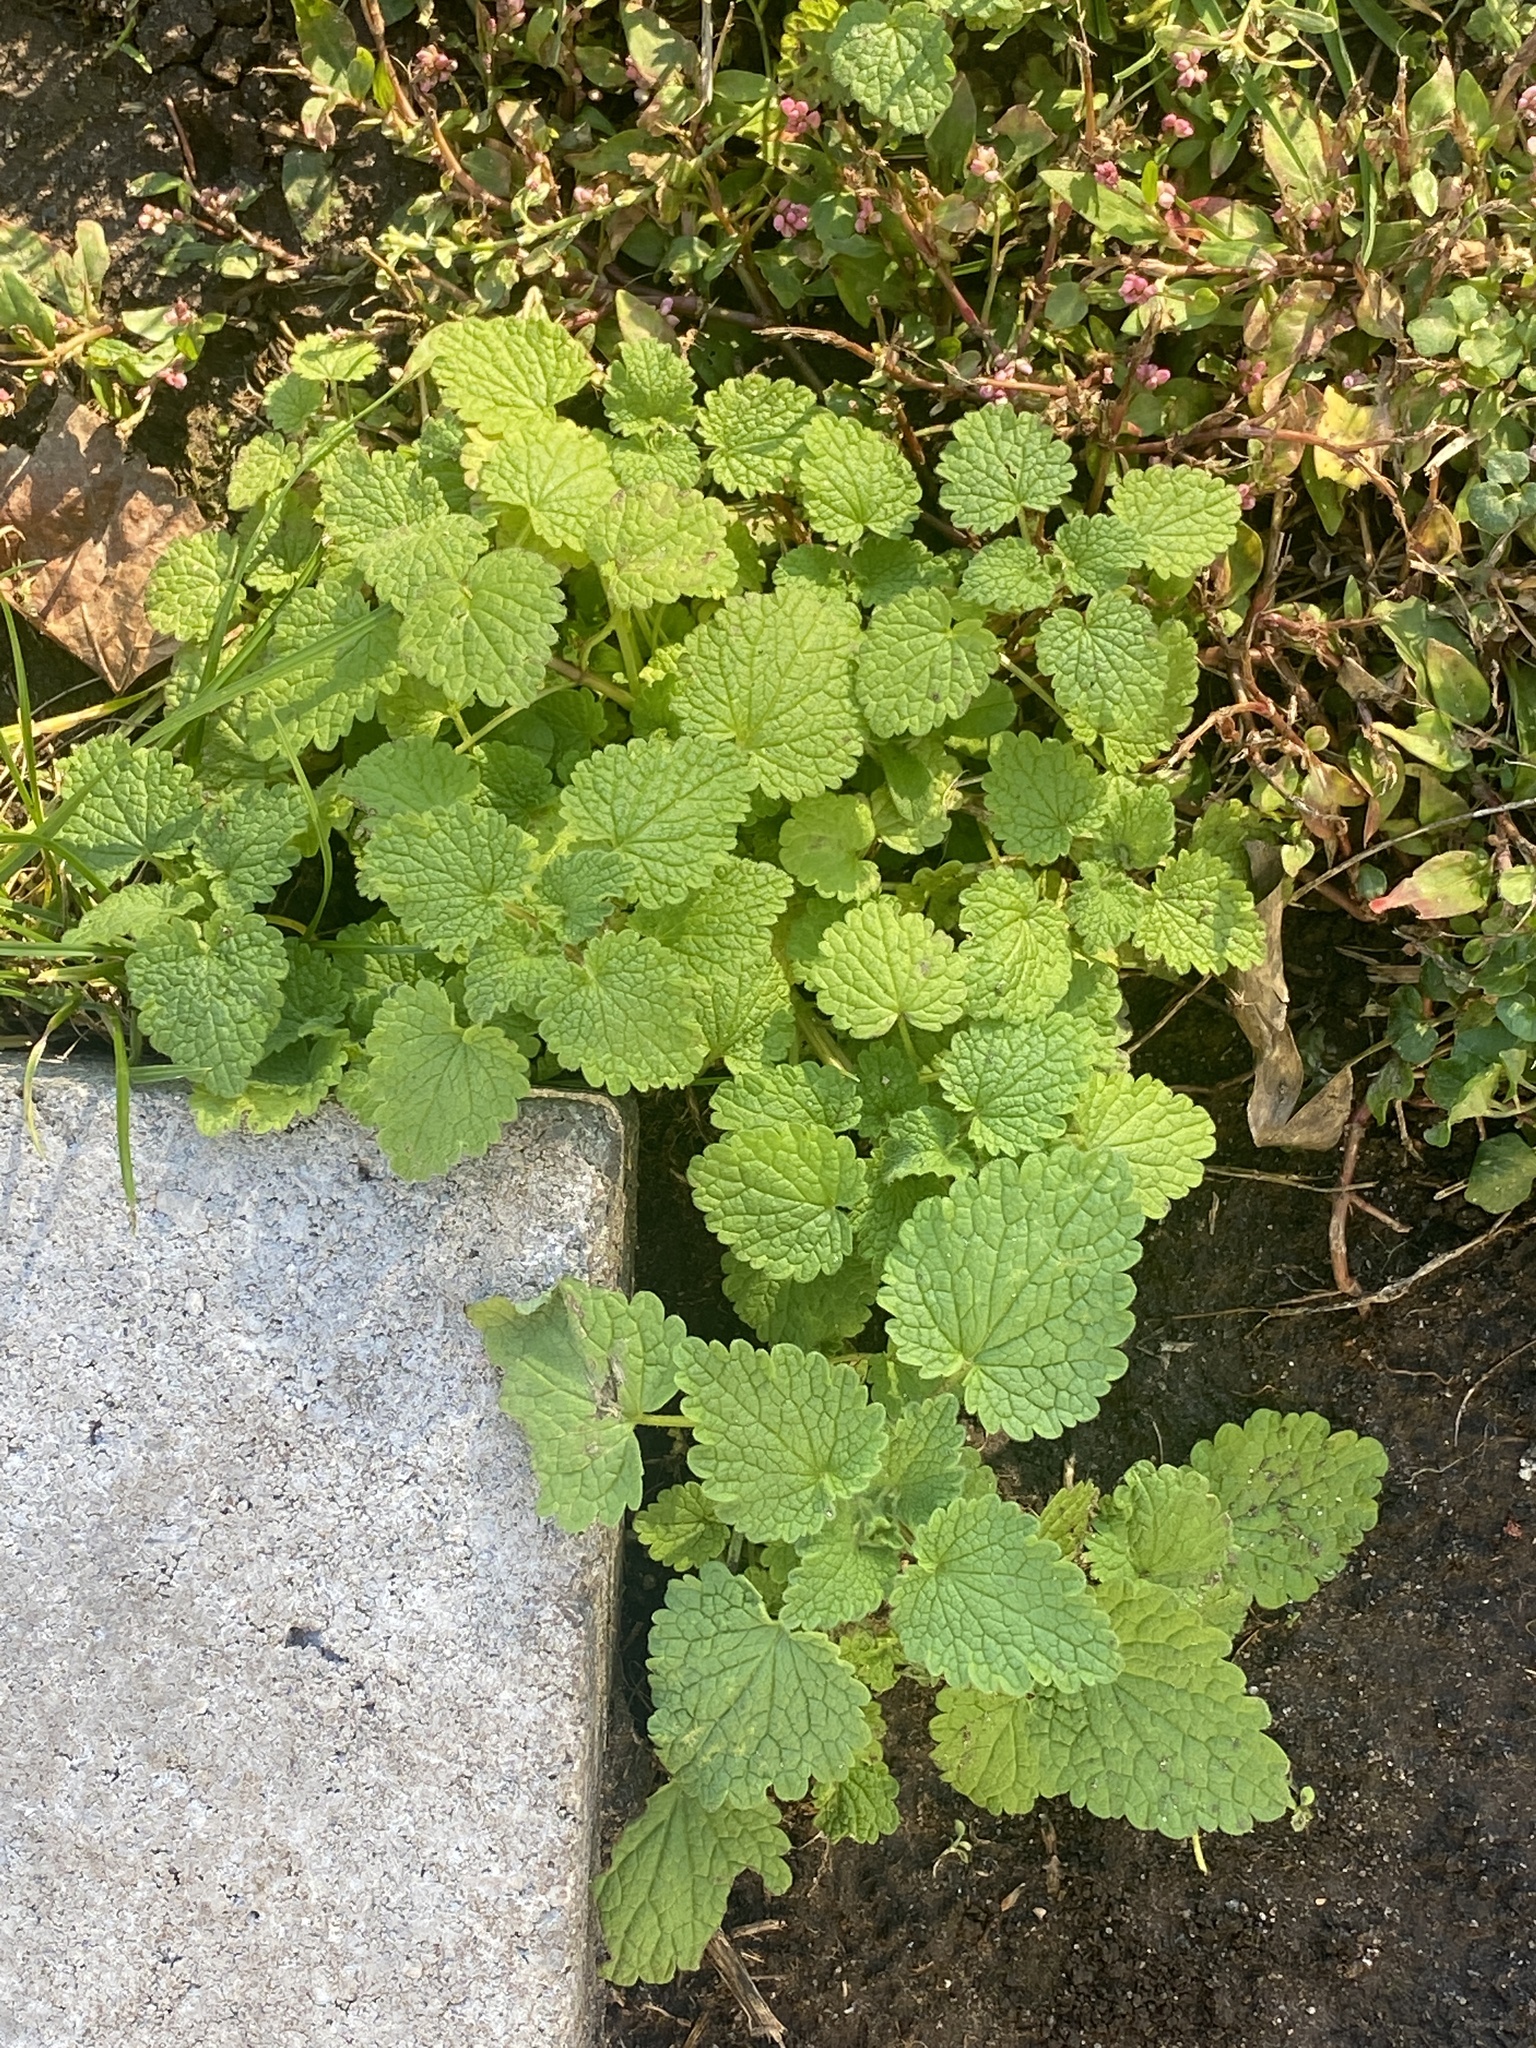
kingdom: Plantae
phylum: Tracheophyta
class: Magnoliopsida
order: Lamiales
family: Lamiaceae
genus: Lamium
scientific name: Lamium purpureum
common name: Red dead-nettle
